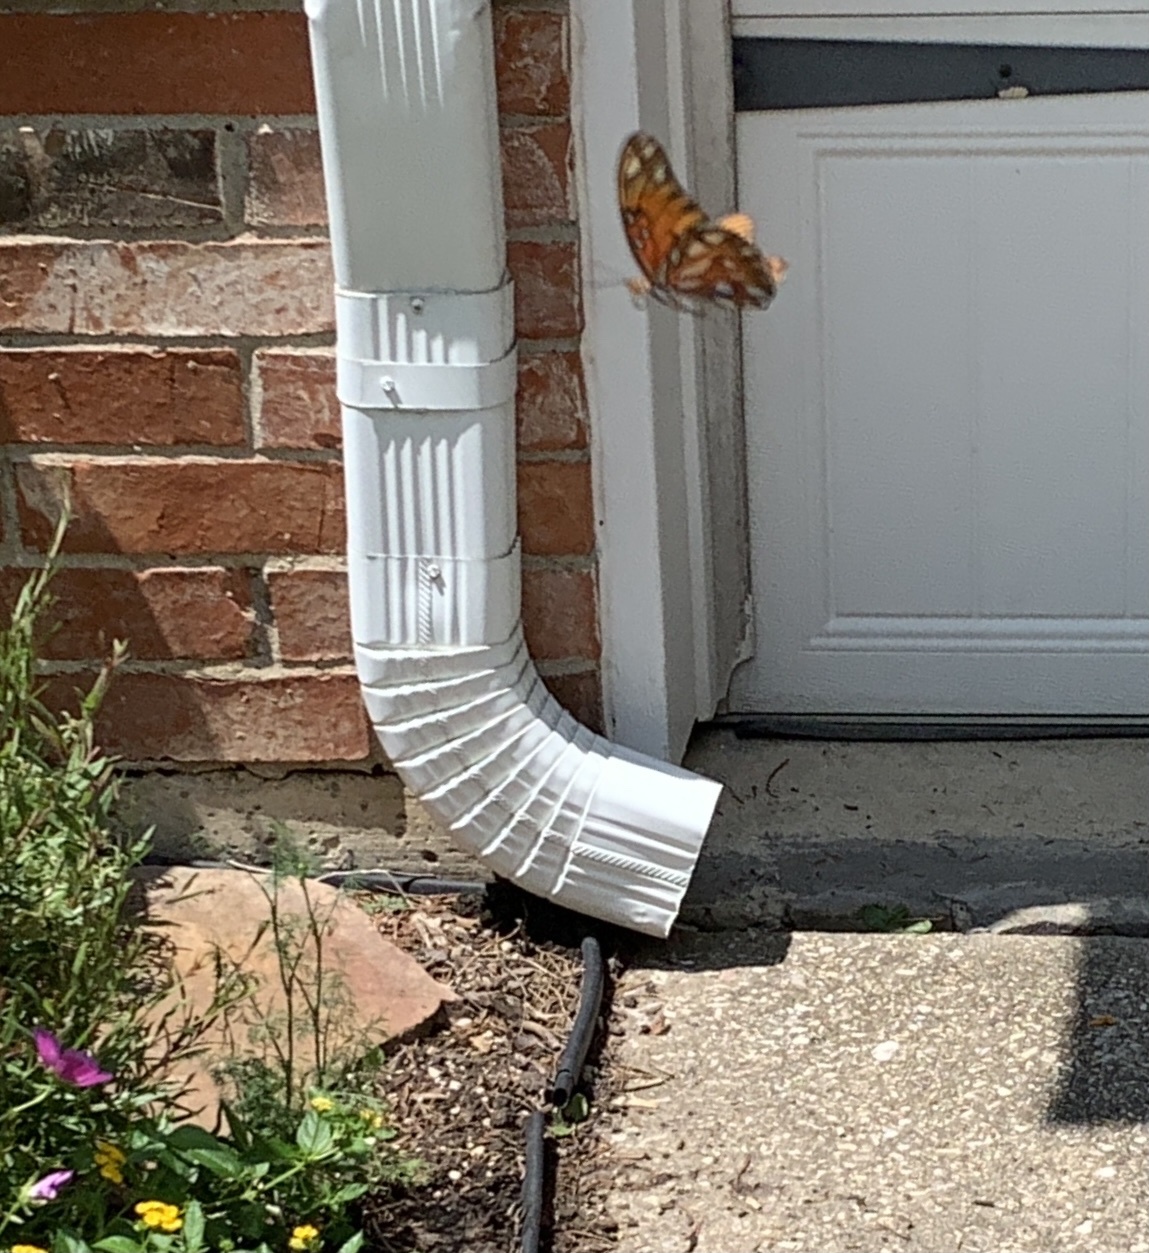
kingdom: Animalia
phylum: Arthropoda
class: Insecta
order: Lepidoptera
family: Nymphalidae
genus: Dione
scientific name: Dione vanillae
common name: Gulf fritillary
